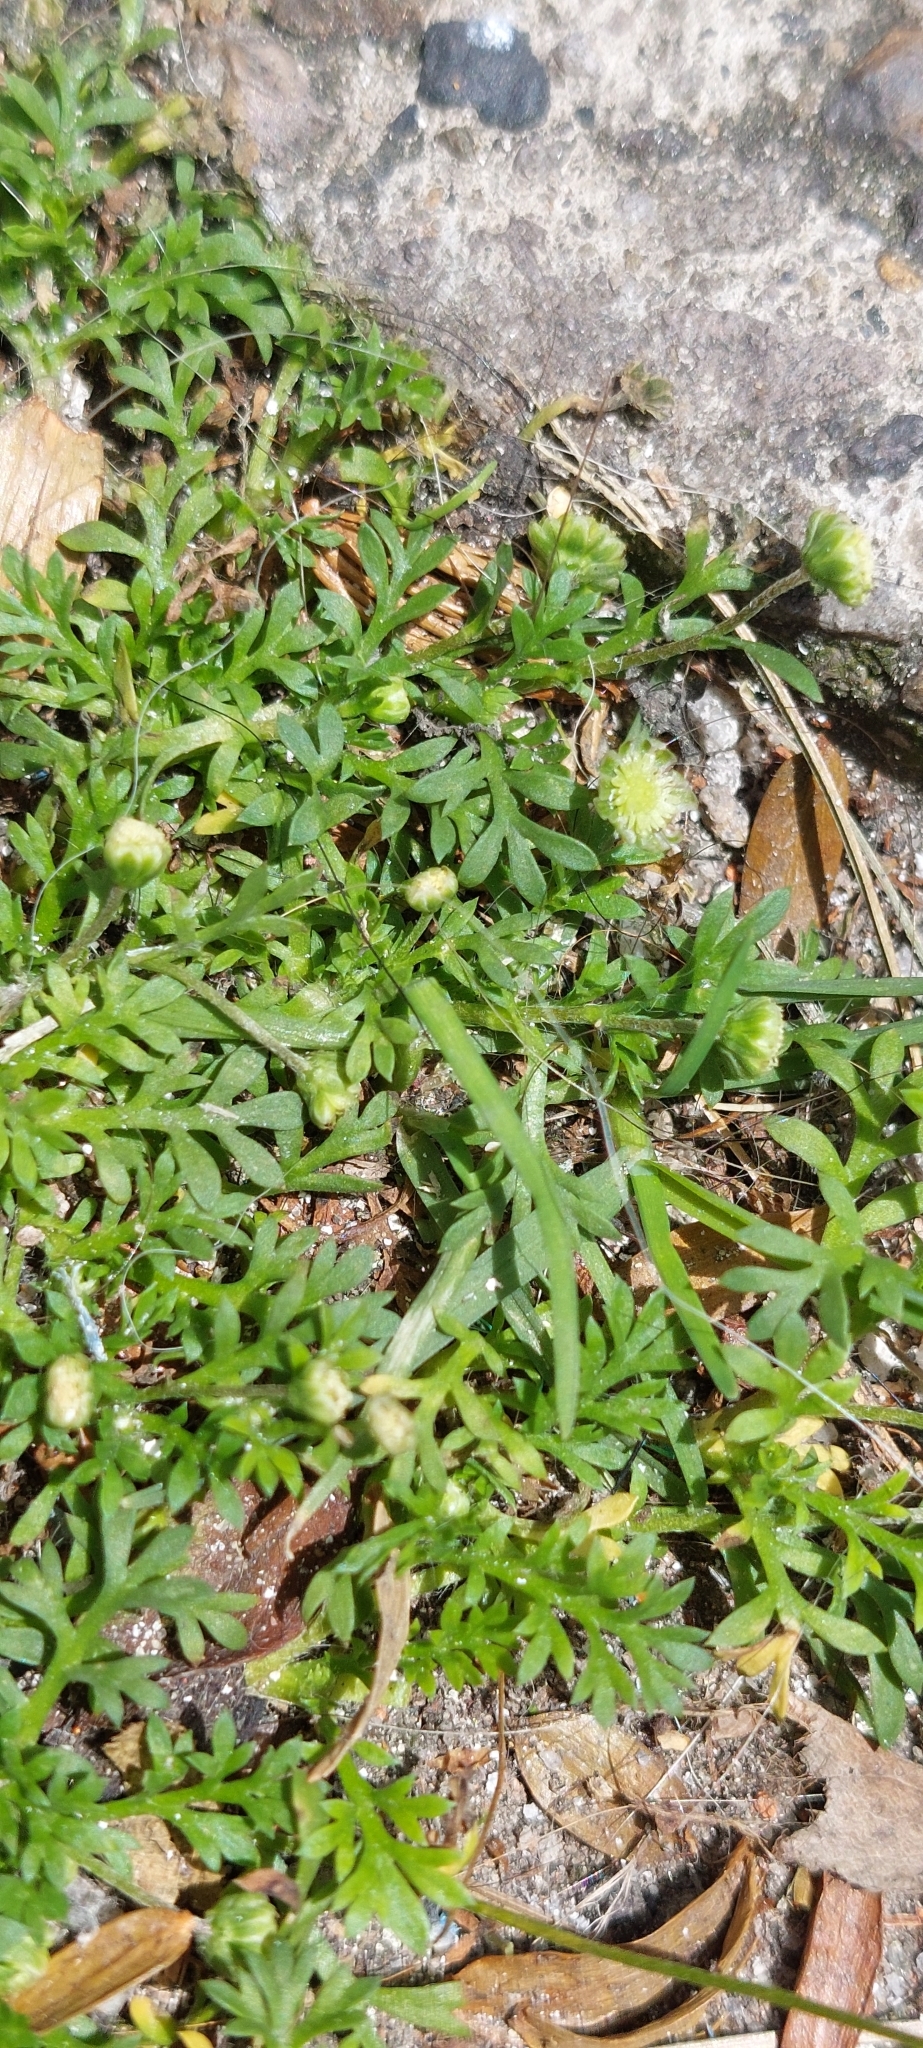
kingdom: Plantae
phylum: Tracheophyta
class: Magnoliopsida
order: Asterales
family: Asteraceae
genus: Cotula
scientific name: Cotula australis
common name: Australian waterbuttons
